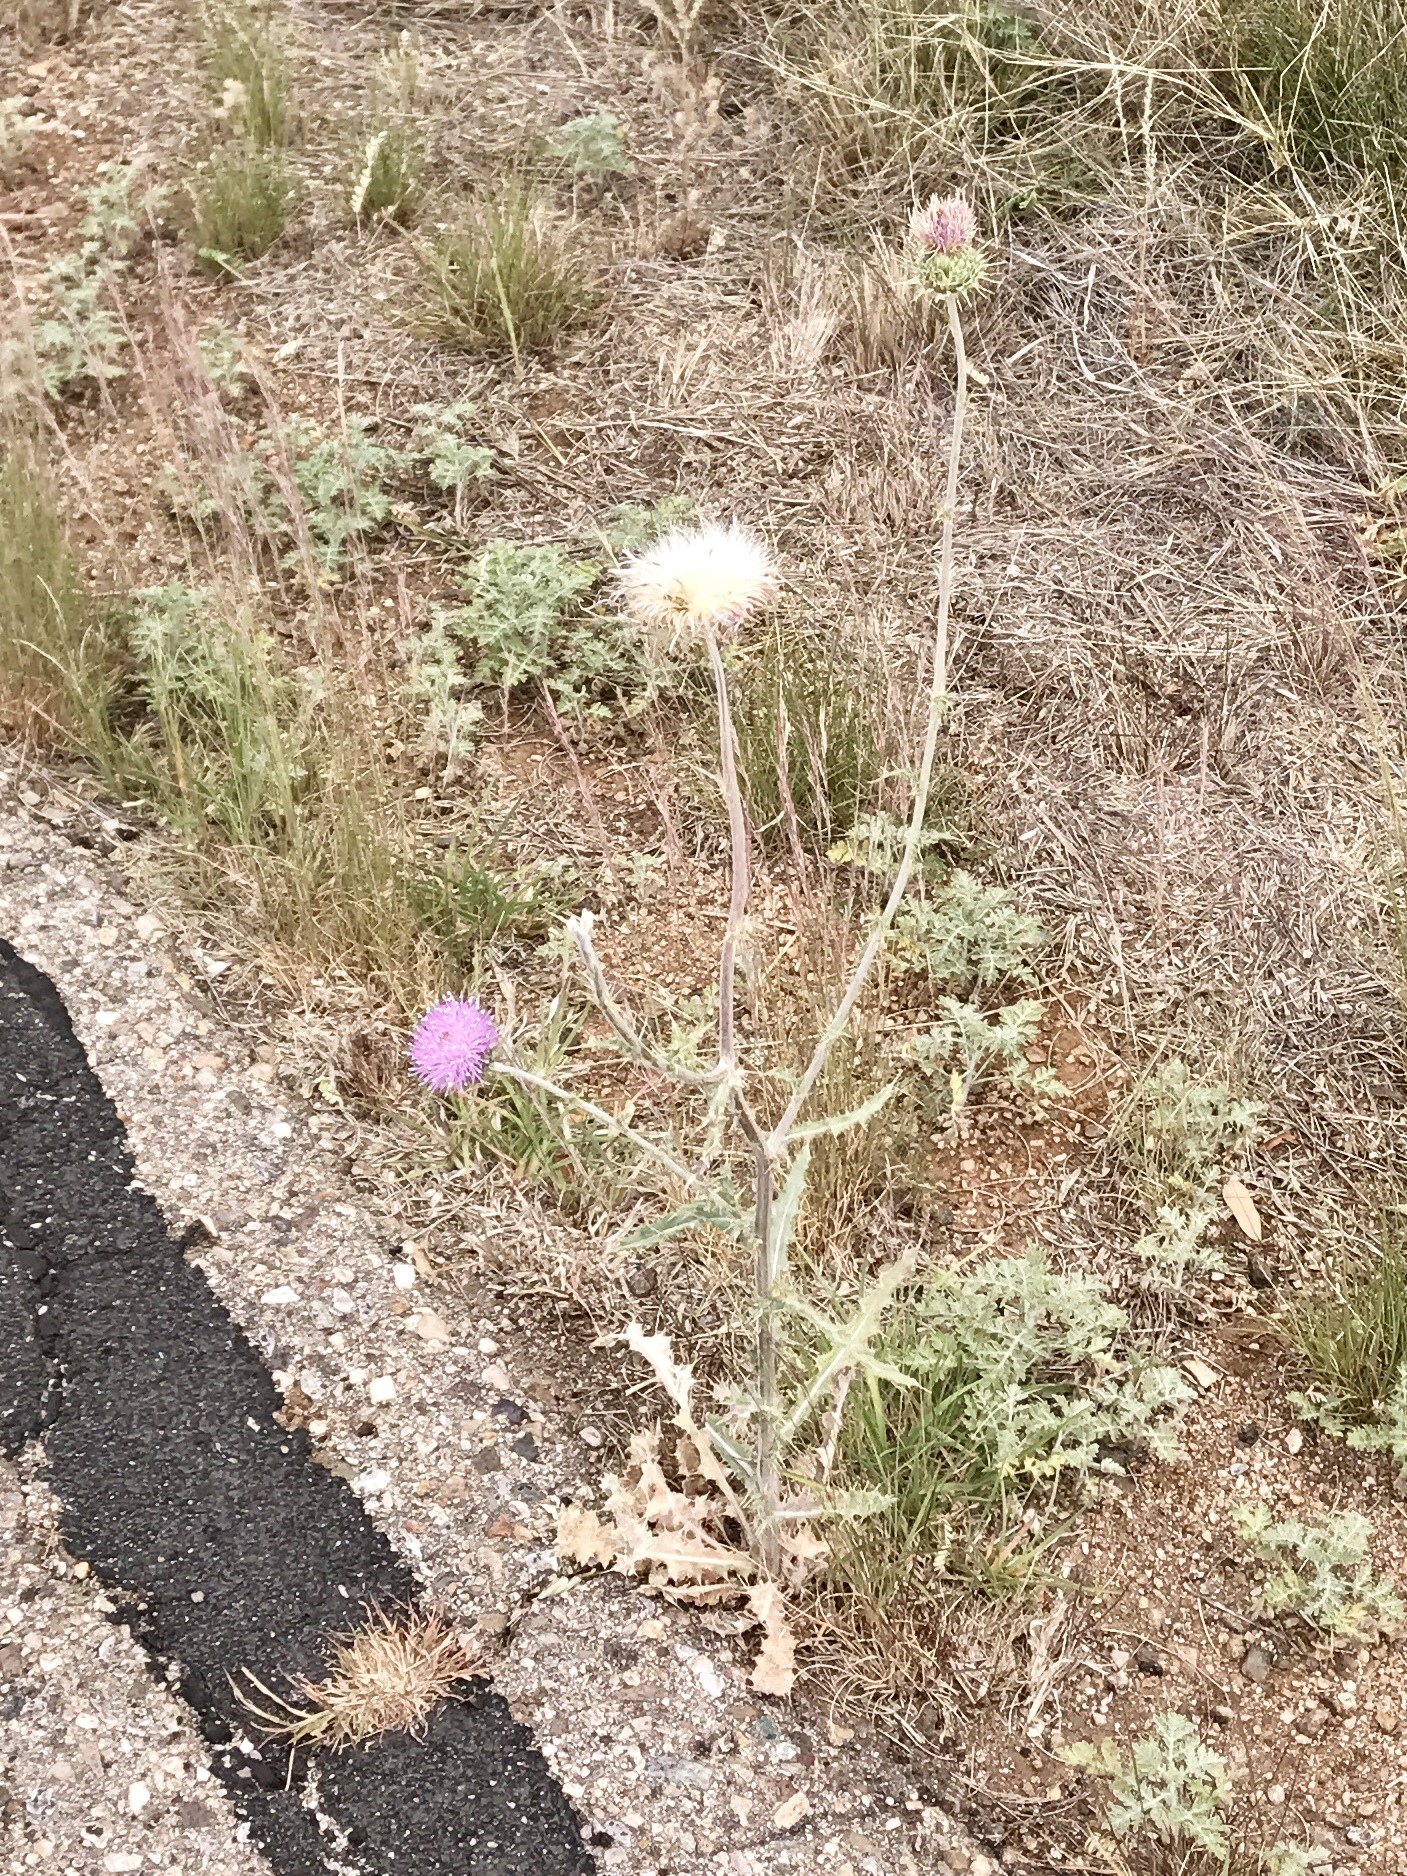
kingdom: Plantae
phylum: Tracheophyta
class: Magnoliopsida
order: Asterales
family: Asteraceae
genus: Cirsium
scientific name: Cirsium neomexicanum
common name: New mexico thistle
